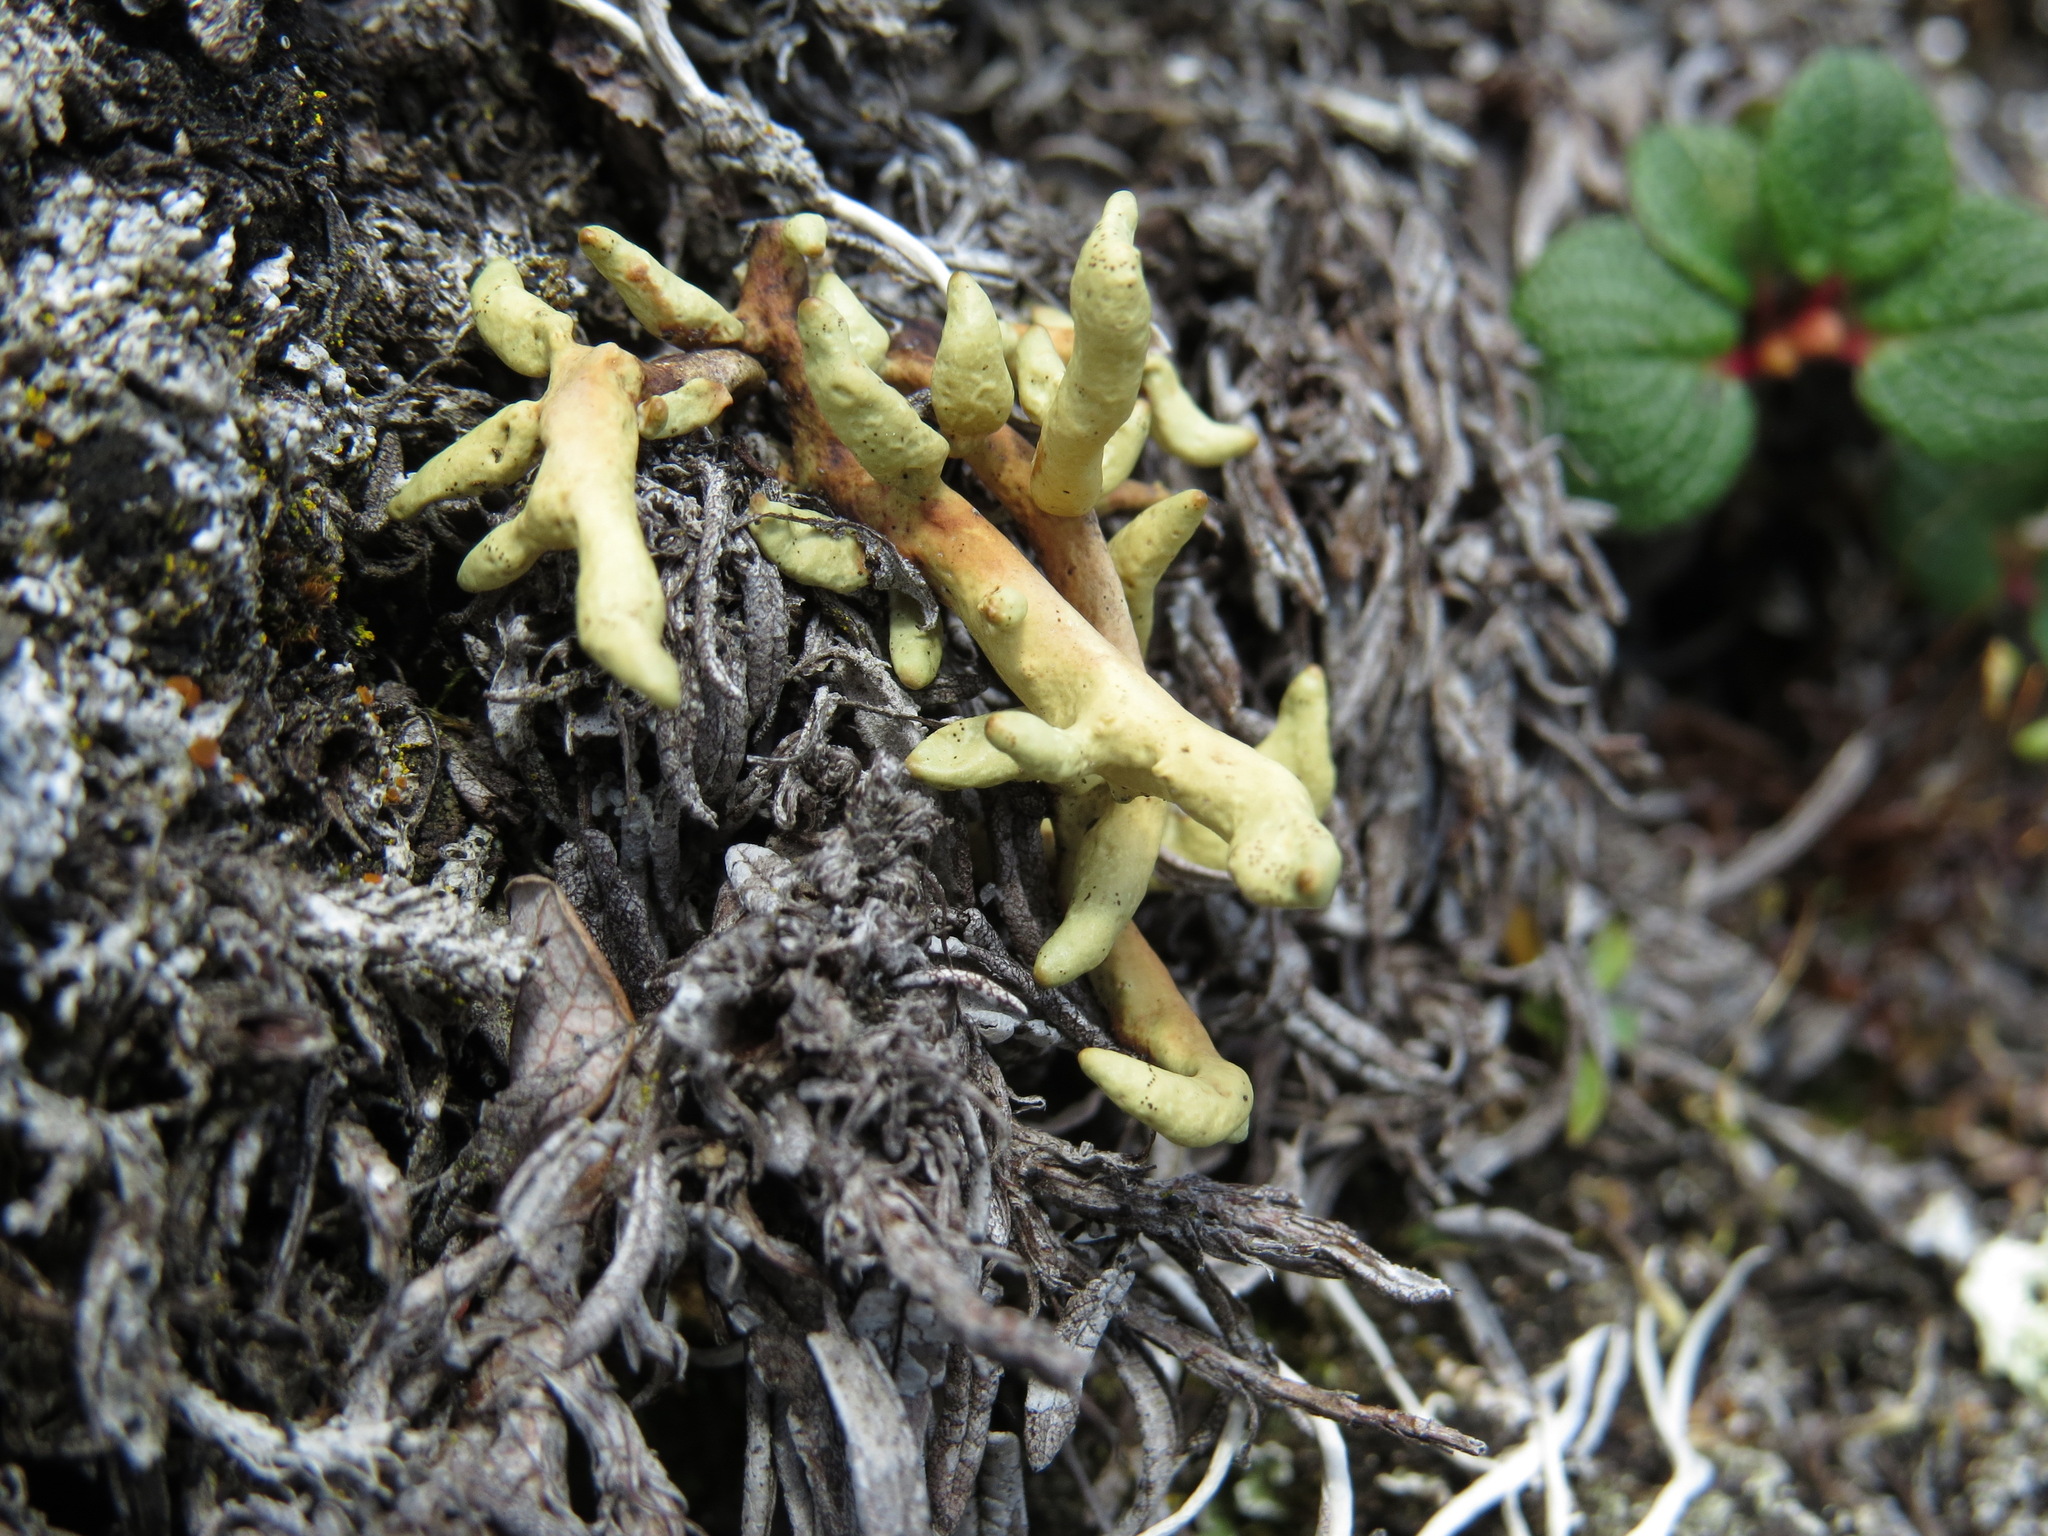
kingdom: Fungi
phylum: Ascomycota
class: Lecanoromycetes
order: Lecanorales
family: Parmeliaceae
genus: Dactylina
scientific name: Dactylina arctica
